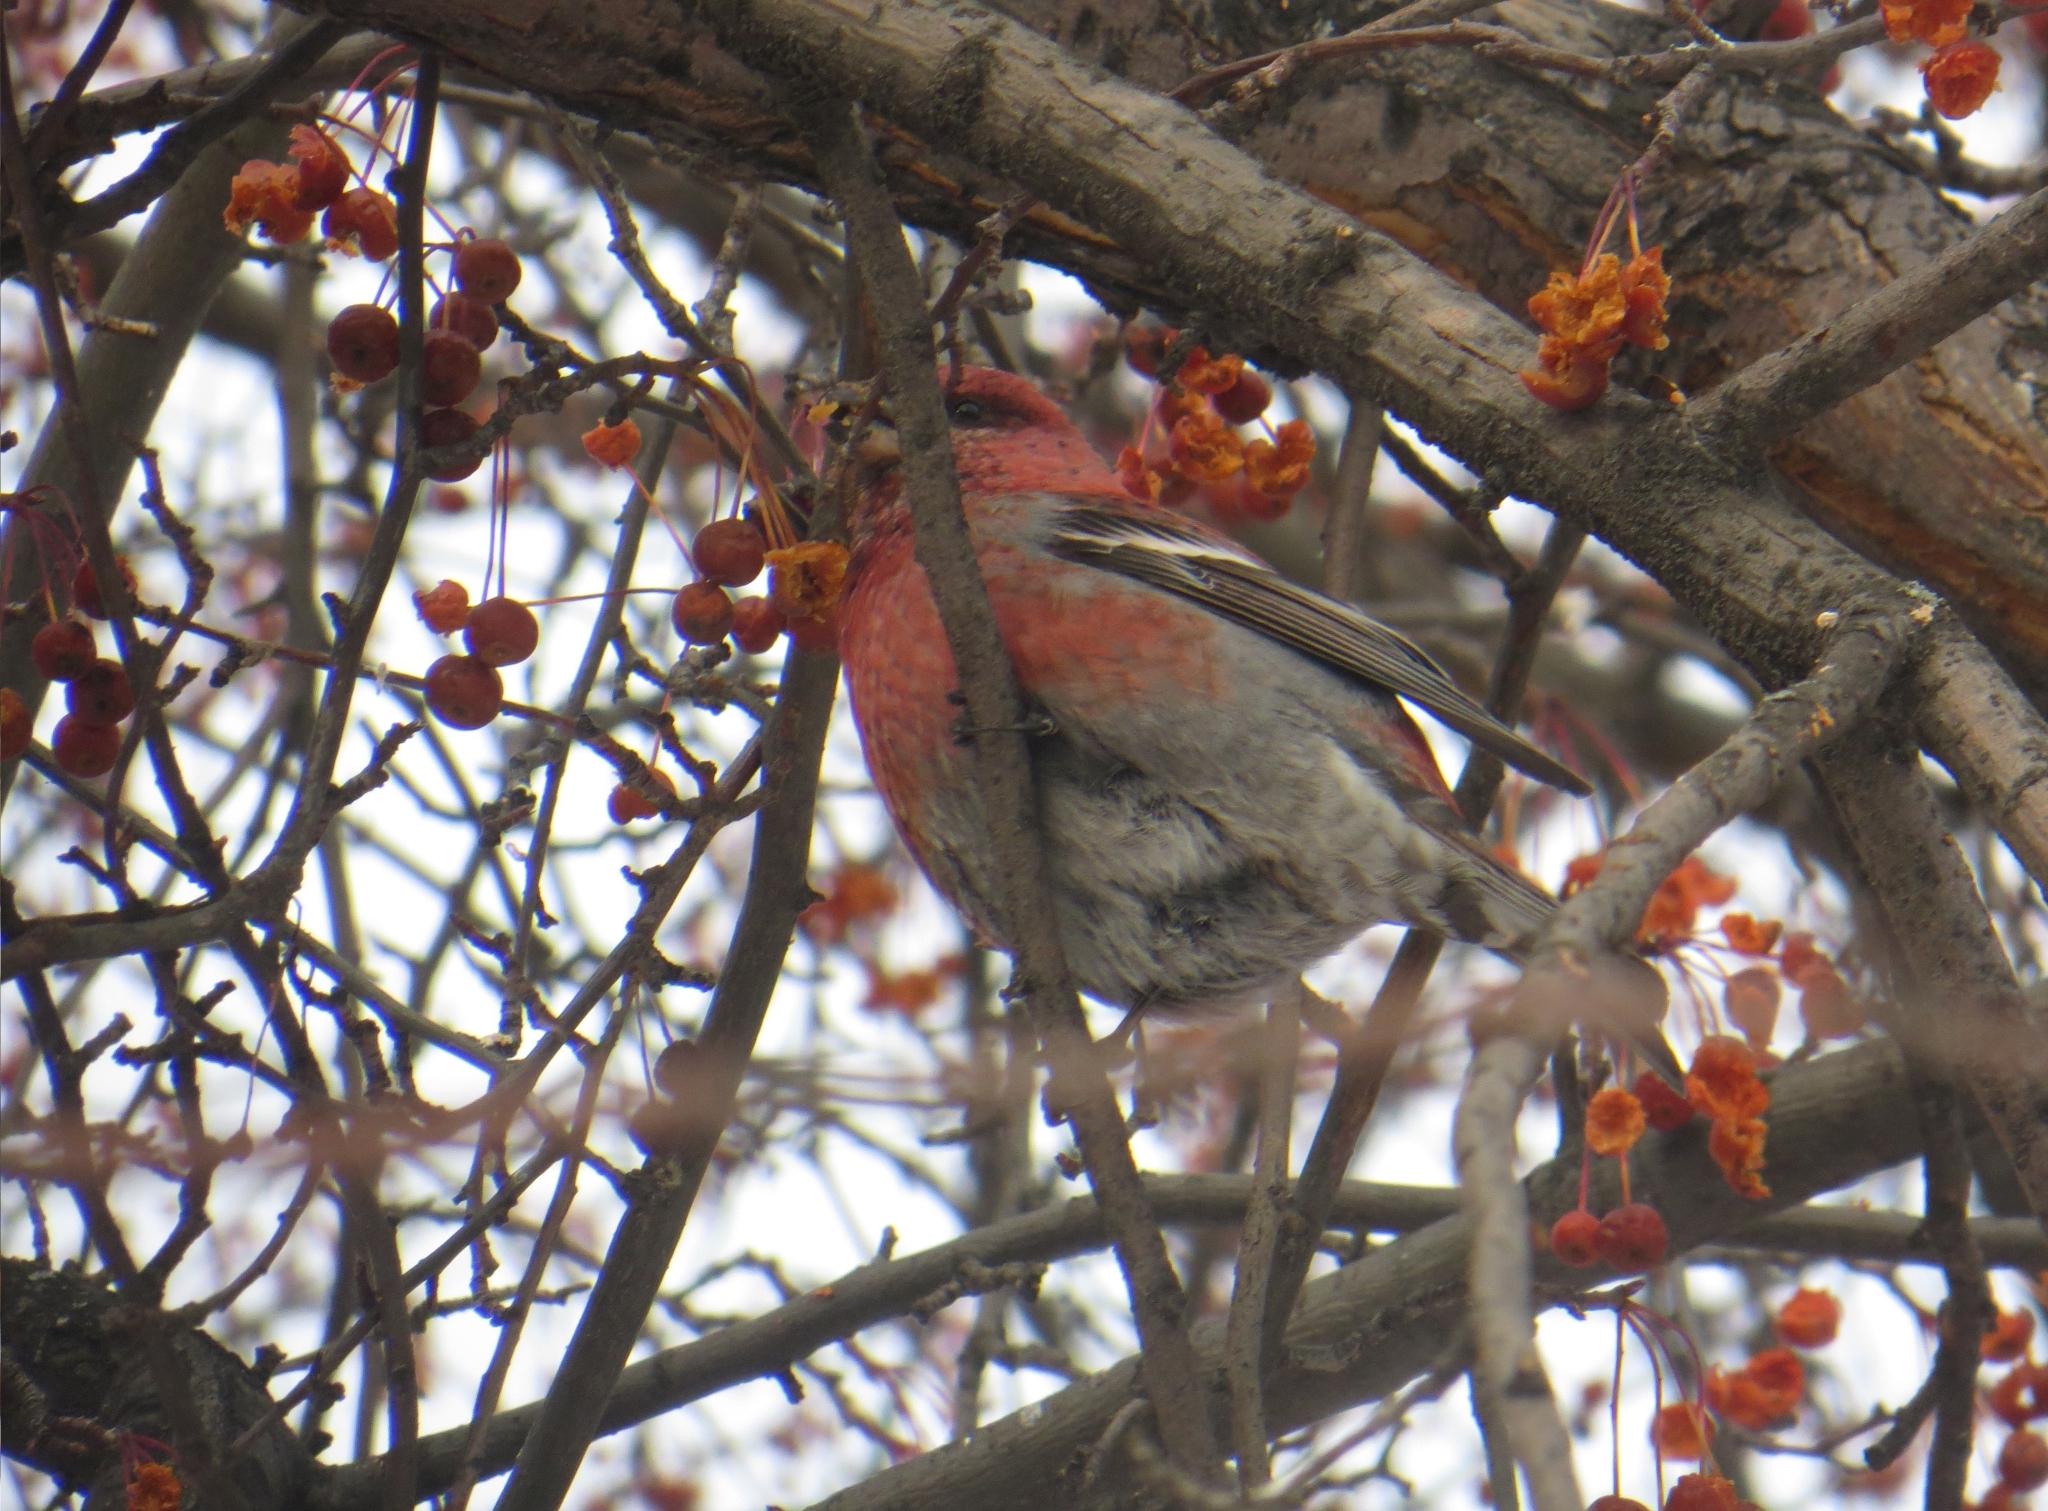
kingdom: Animalia
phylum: Chordata
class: Aves
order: Passeriformes
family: Fringillidae
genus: Pinicola
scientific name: Pinicola enucleator
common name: Pine grosbeak
